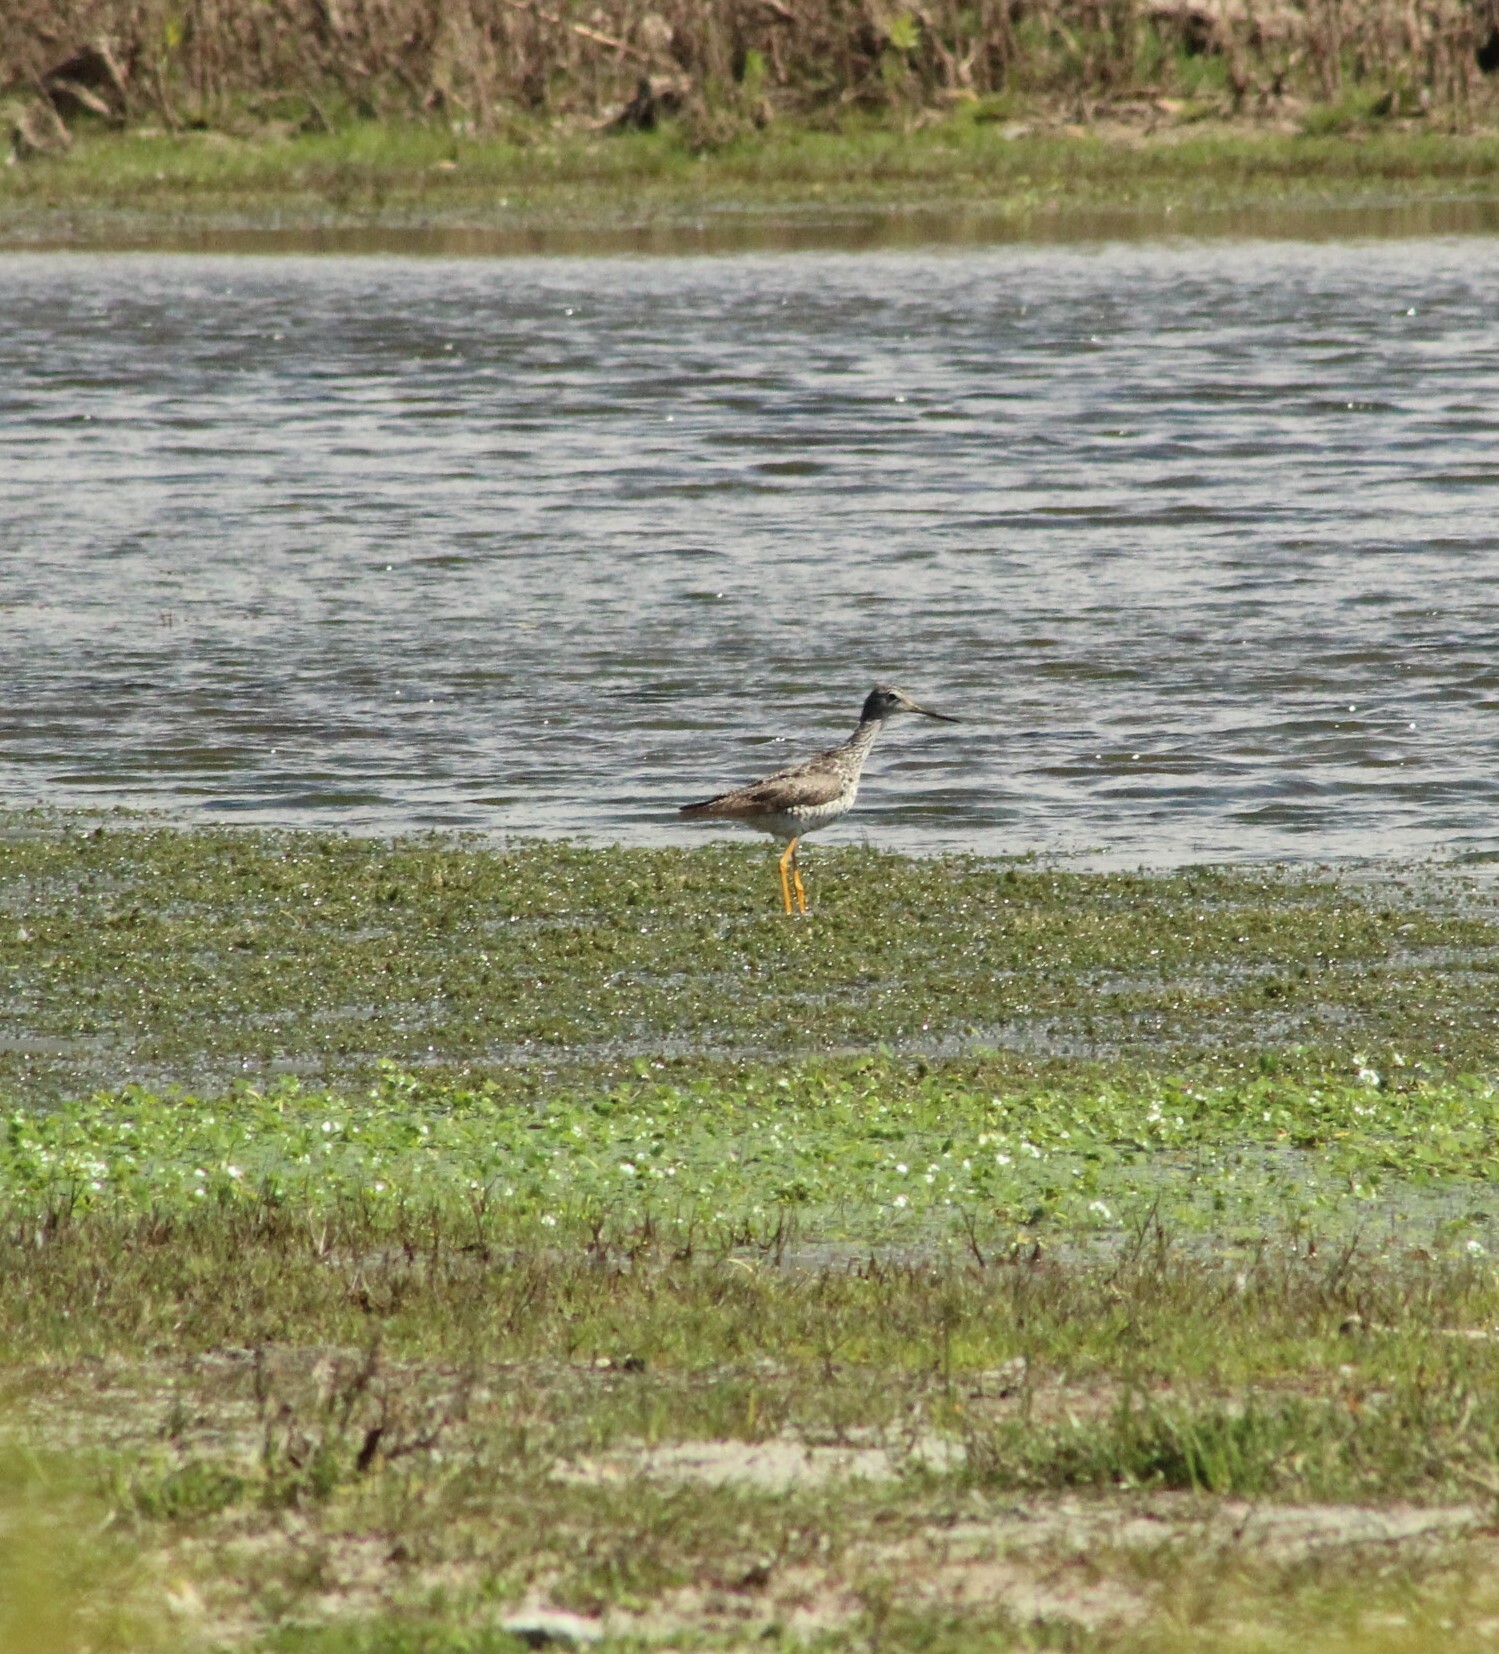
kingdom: Animalia
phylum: Chordata
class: Aves
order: Charadriiformes
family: Scolopacidae
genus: Tringa
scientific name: Tringa melanoleuca
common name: Greater yellowlegs
